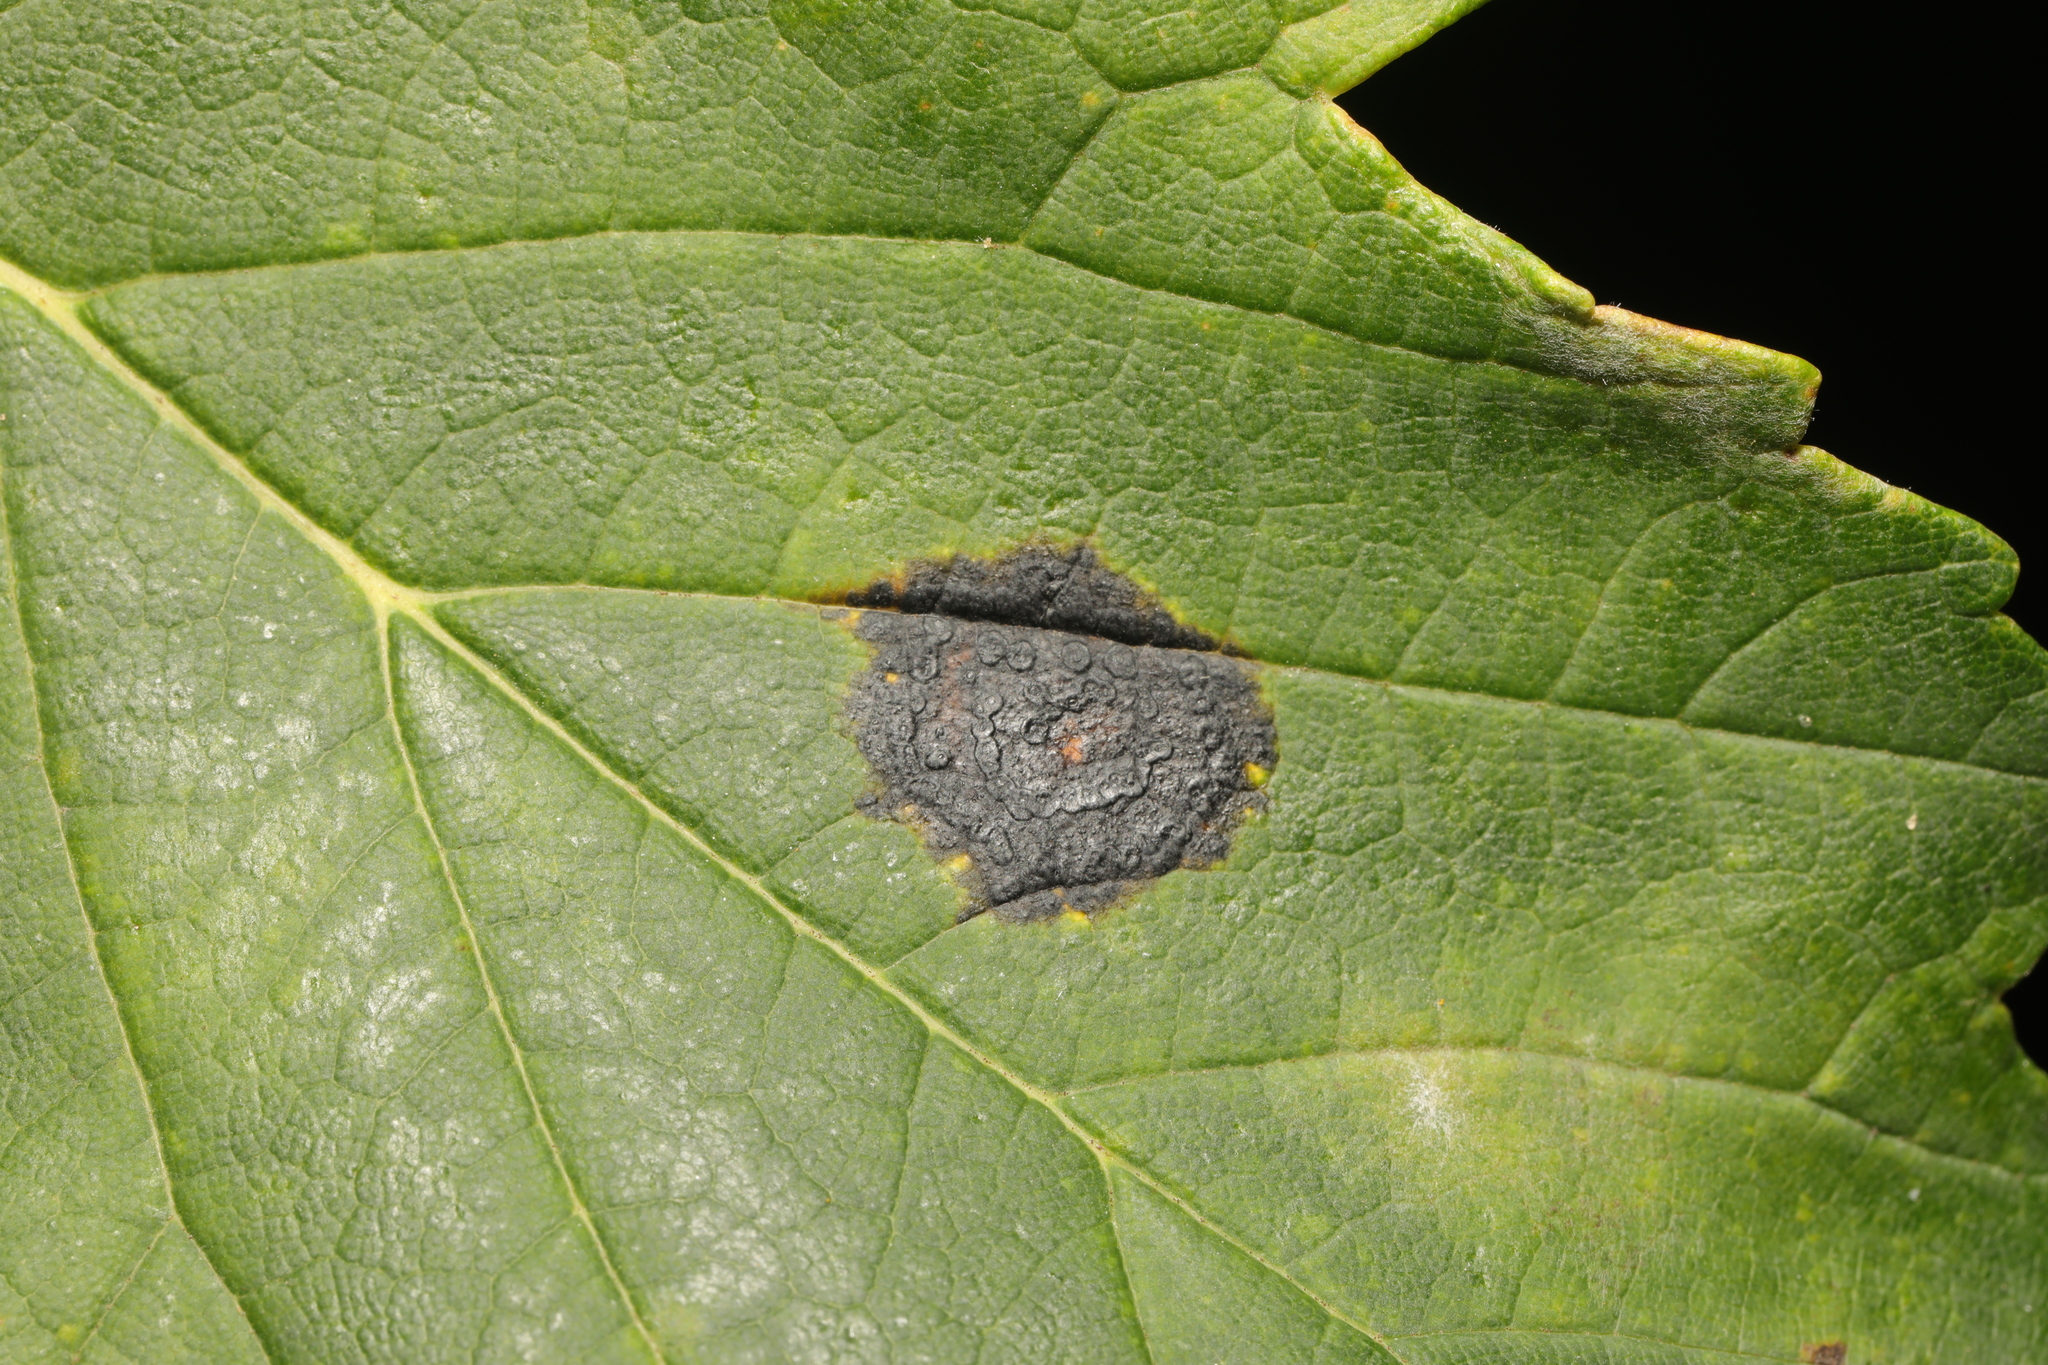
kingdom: Fungi
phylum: Ascomycota
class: Leotiomycetes
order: Rhytismatales
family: Rhytismataceae
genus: Rhytisma
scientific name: Rhytisma acerinum
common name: European tar spot
